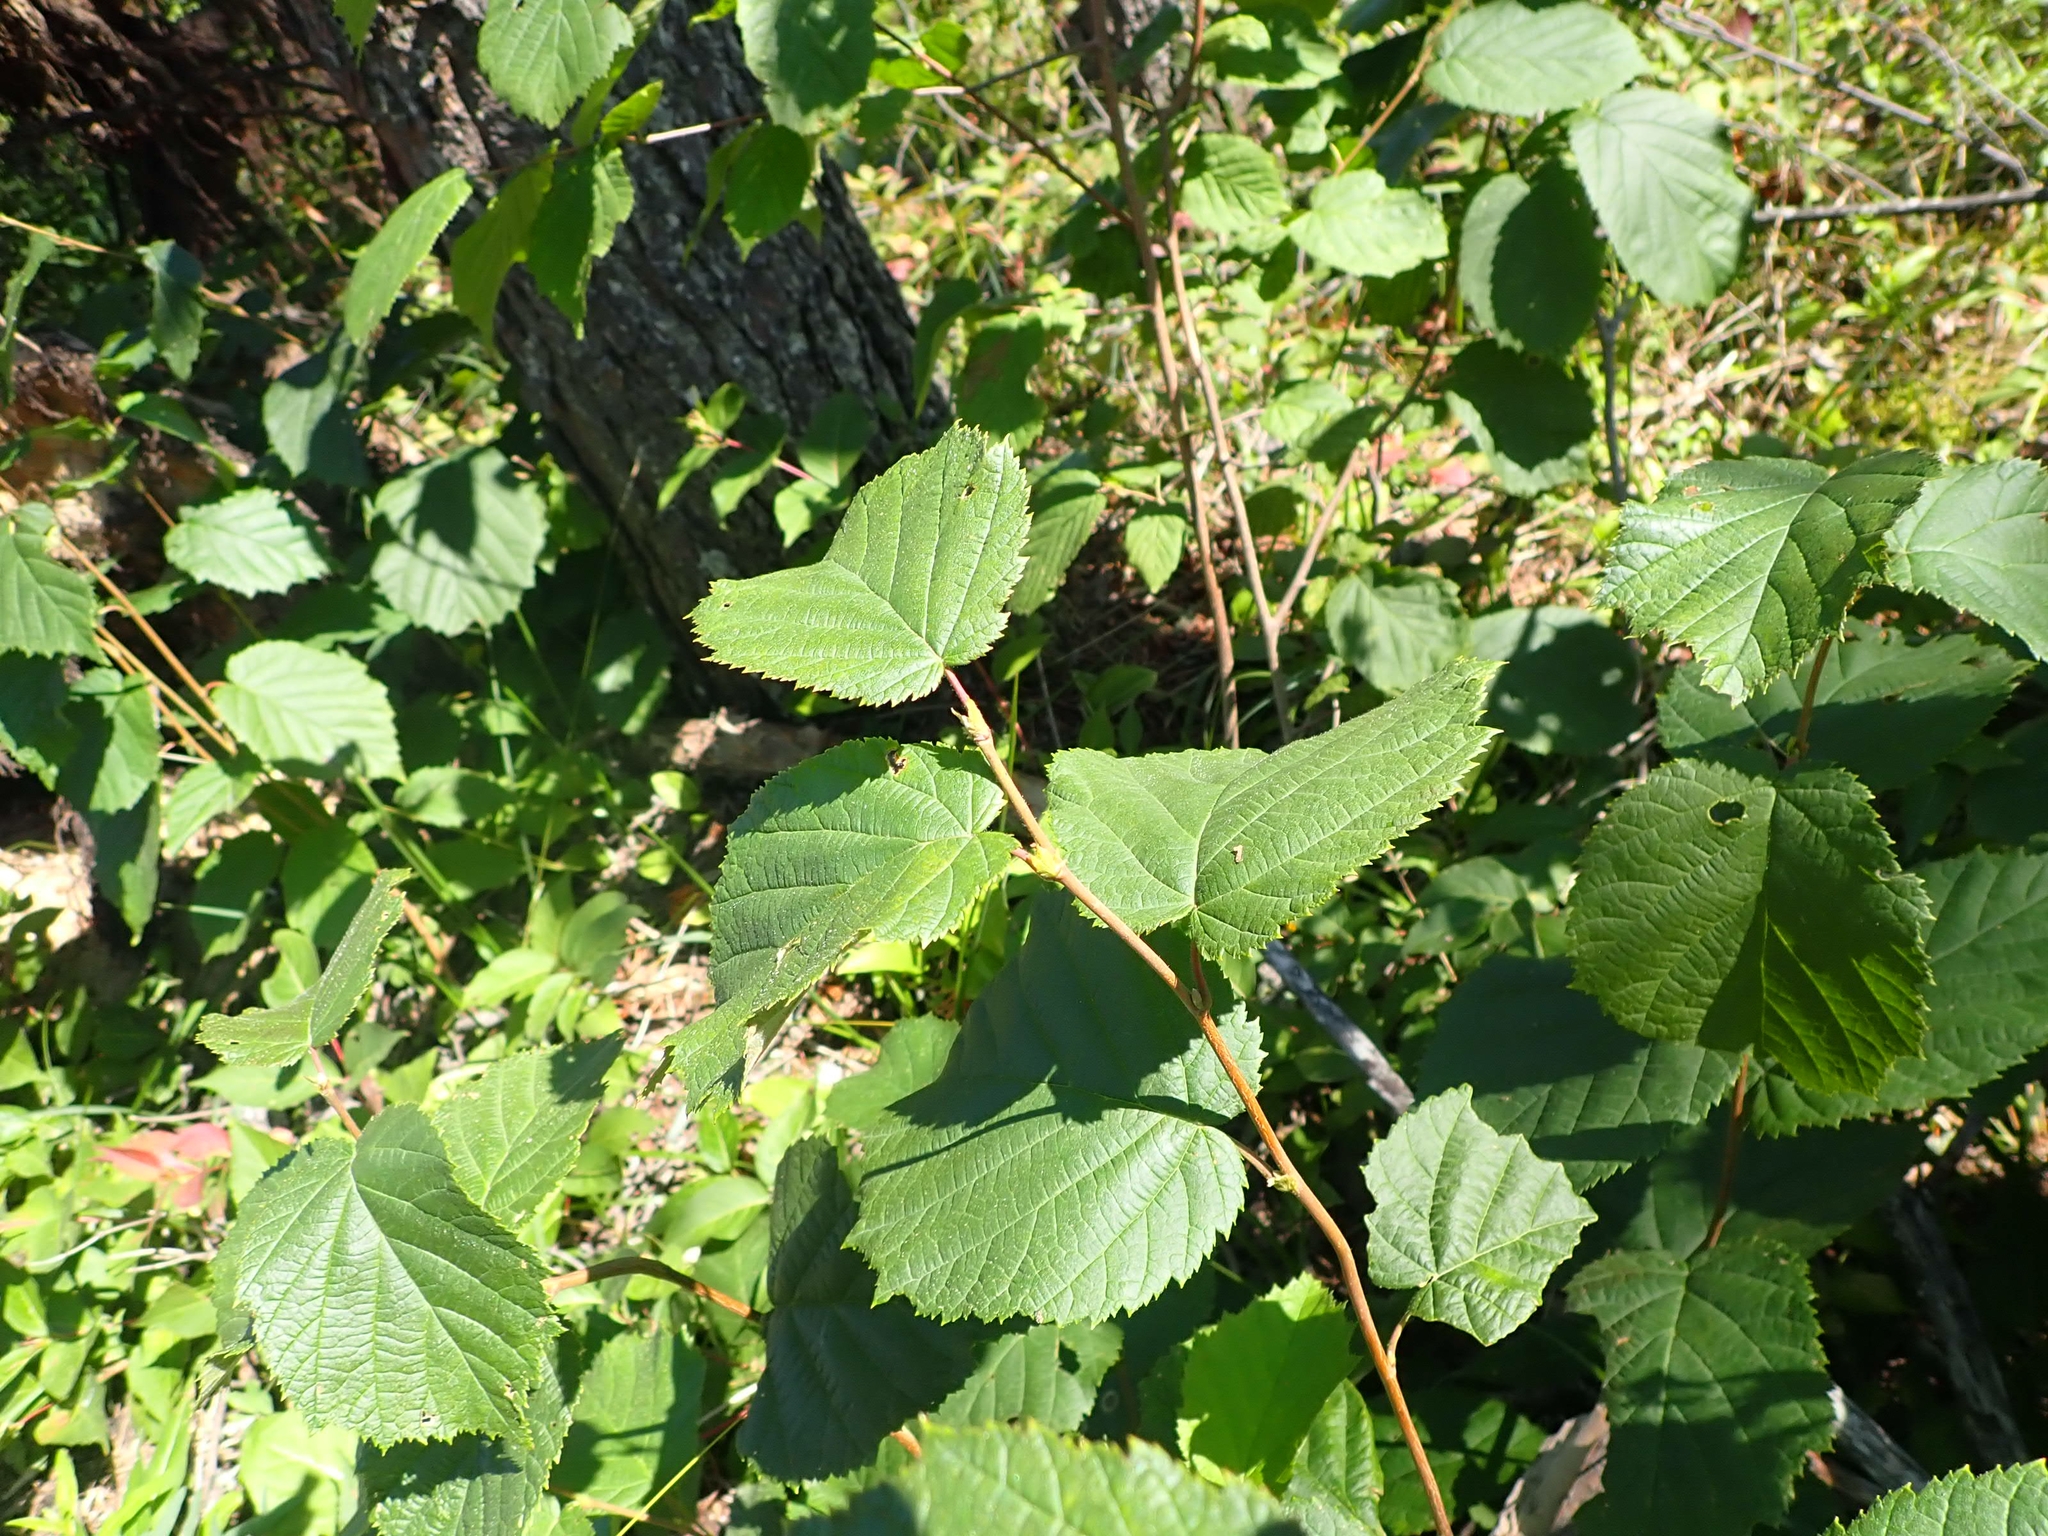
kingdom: Plantae
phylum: Tracheophyta
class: Magnoliopsida
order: Fagales
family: Betulaceae
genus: Corylus
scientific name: Corylus cornuta
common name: Beaked hazel
